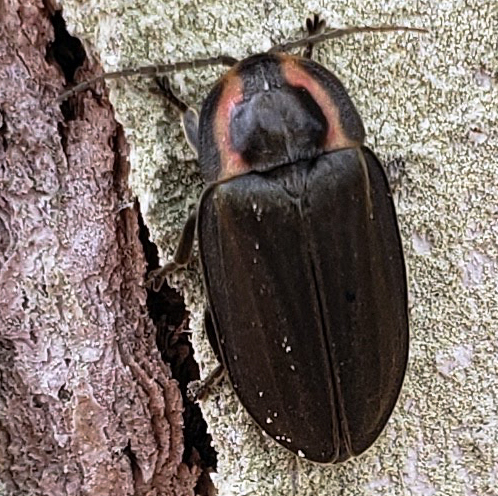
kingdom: Animalia
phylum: Arthropoda
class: Insecta
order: Coleoptera
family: Lampyridae
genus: Photinus
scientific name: Photinus corrusca
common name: Winter firefly
